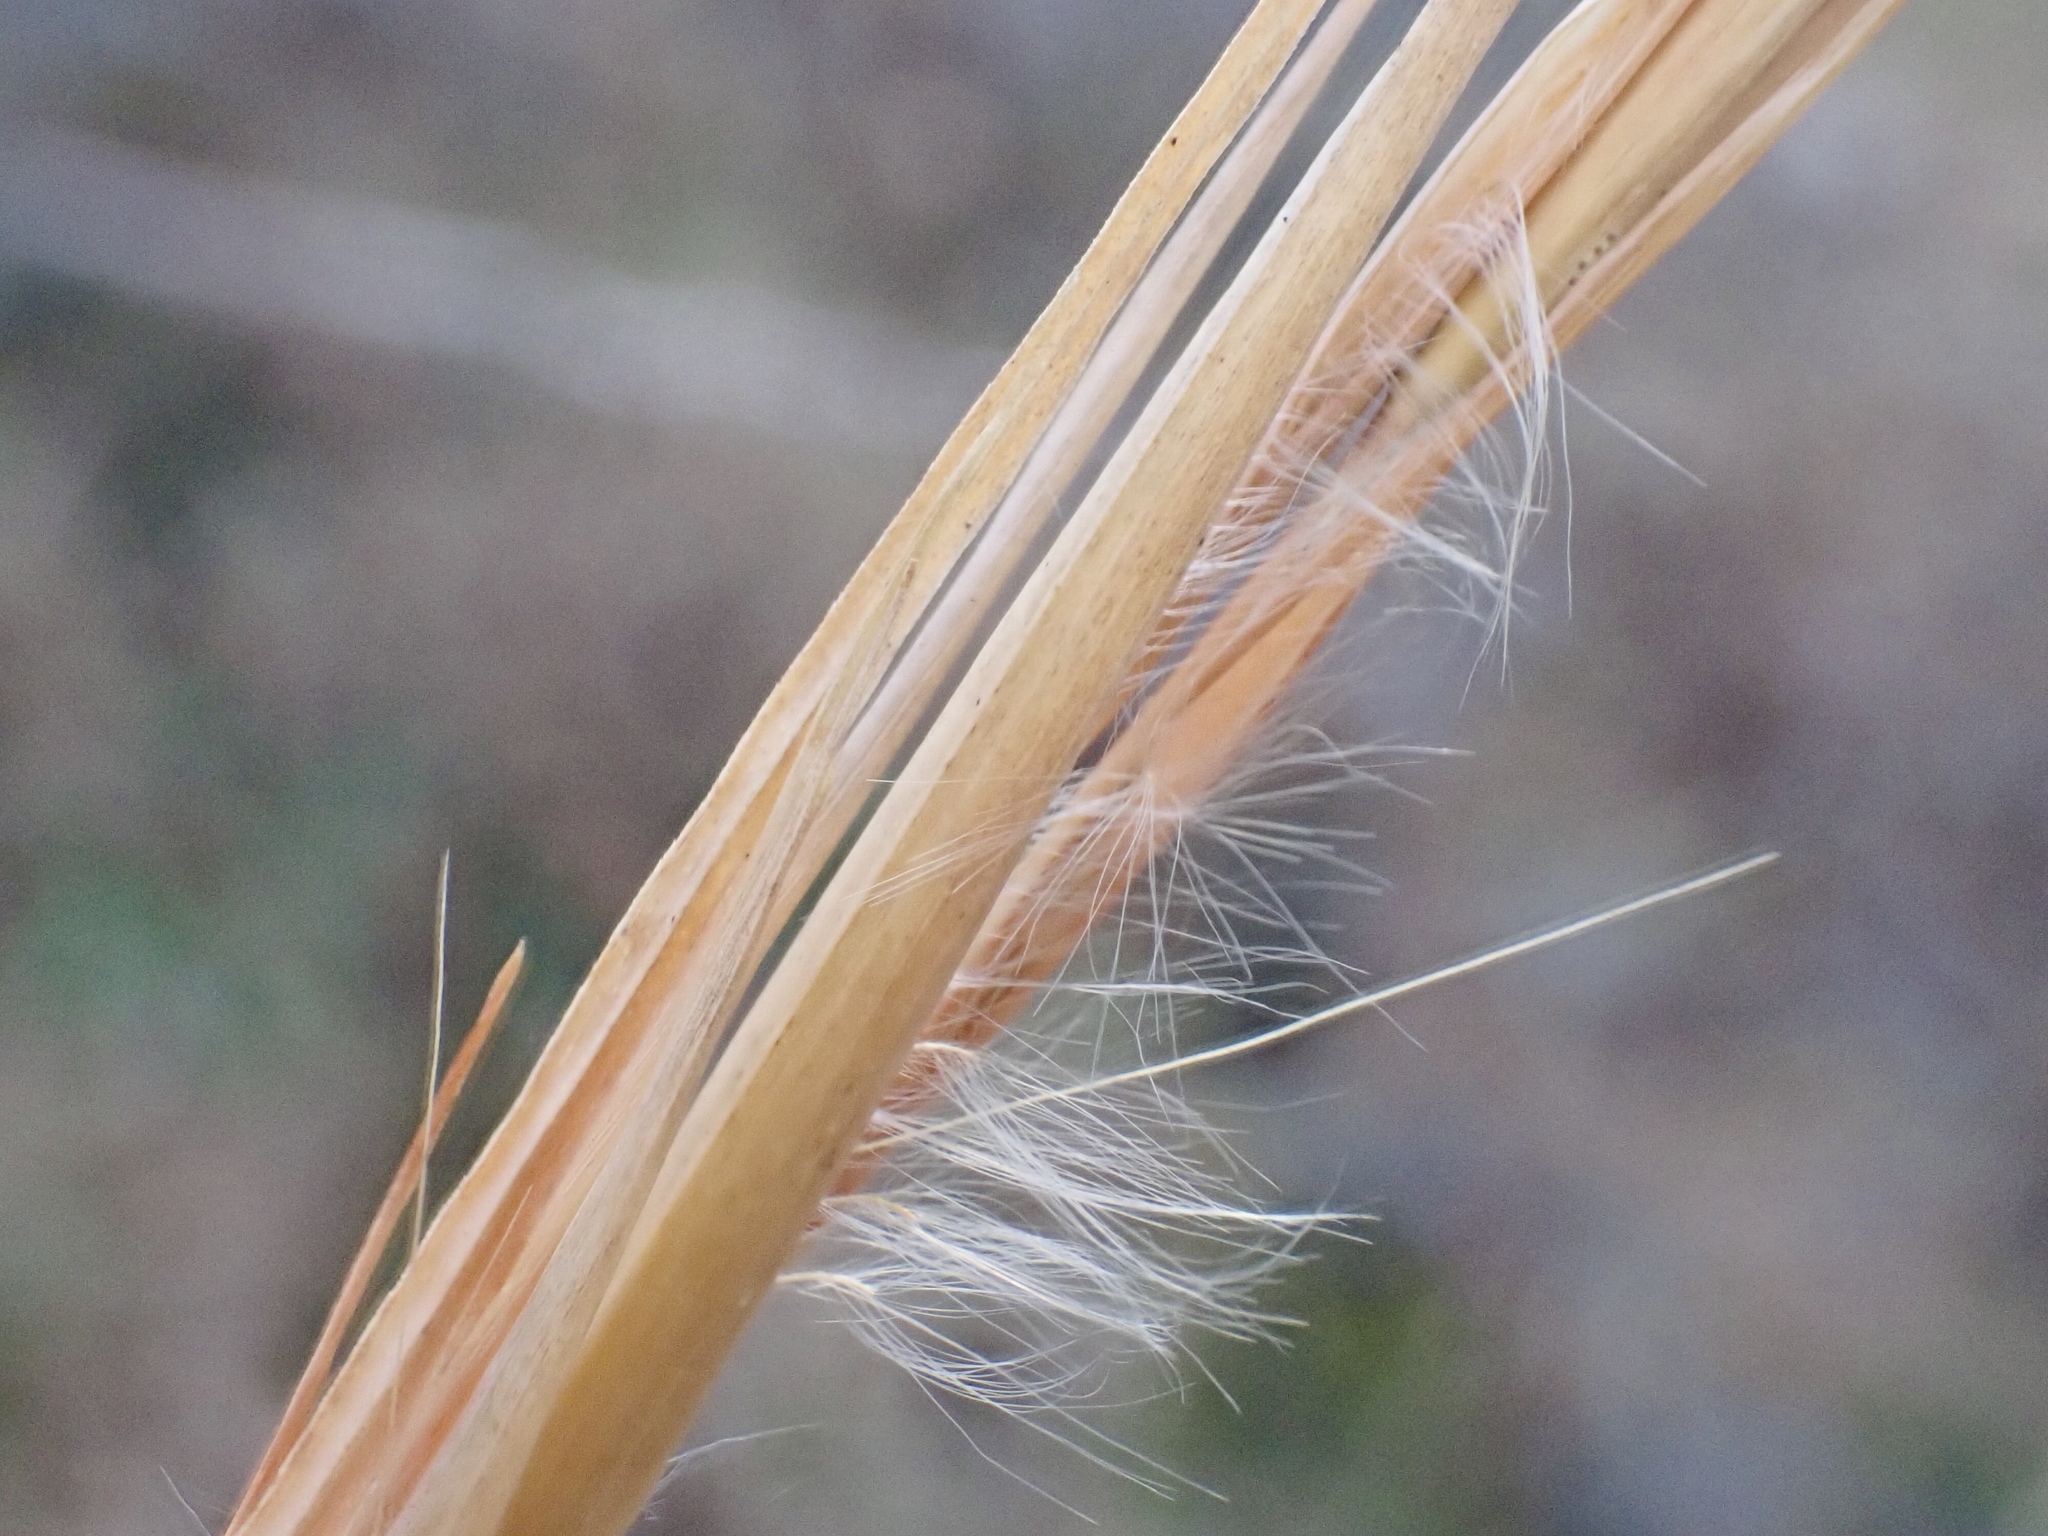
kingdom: Plantae
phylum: Tracheophyta
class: Liliopsida
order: Poales
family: Poaceae
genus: Andropogon
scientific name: Andropogon virginicus
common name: Broomsedge bluestem
